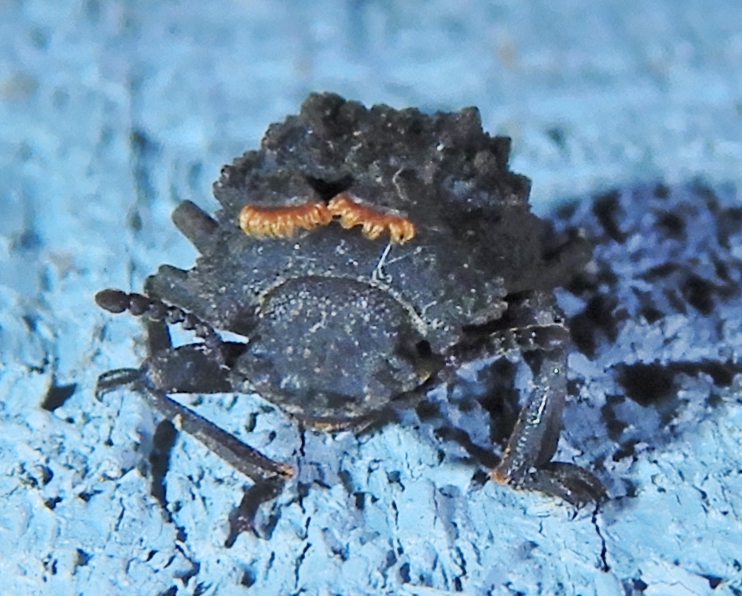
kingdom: Animalia
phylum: Arthropoda
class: Insecta
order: Coleoptera
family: Tenebrionidae
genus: Gnatocerus
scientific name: Gnatocerus cornutus
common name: Broad-horned flour beetle
